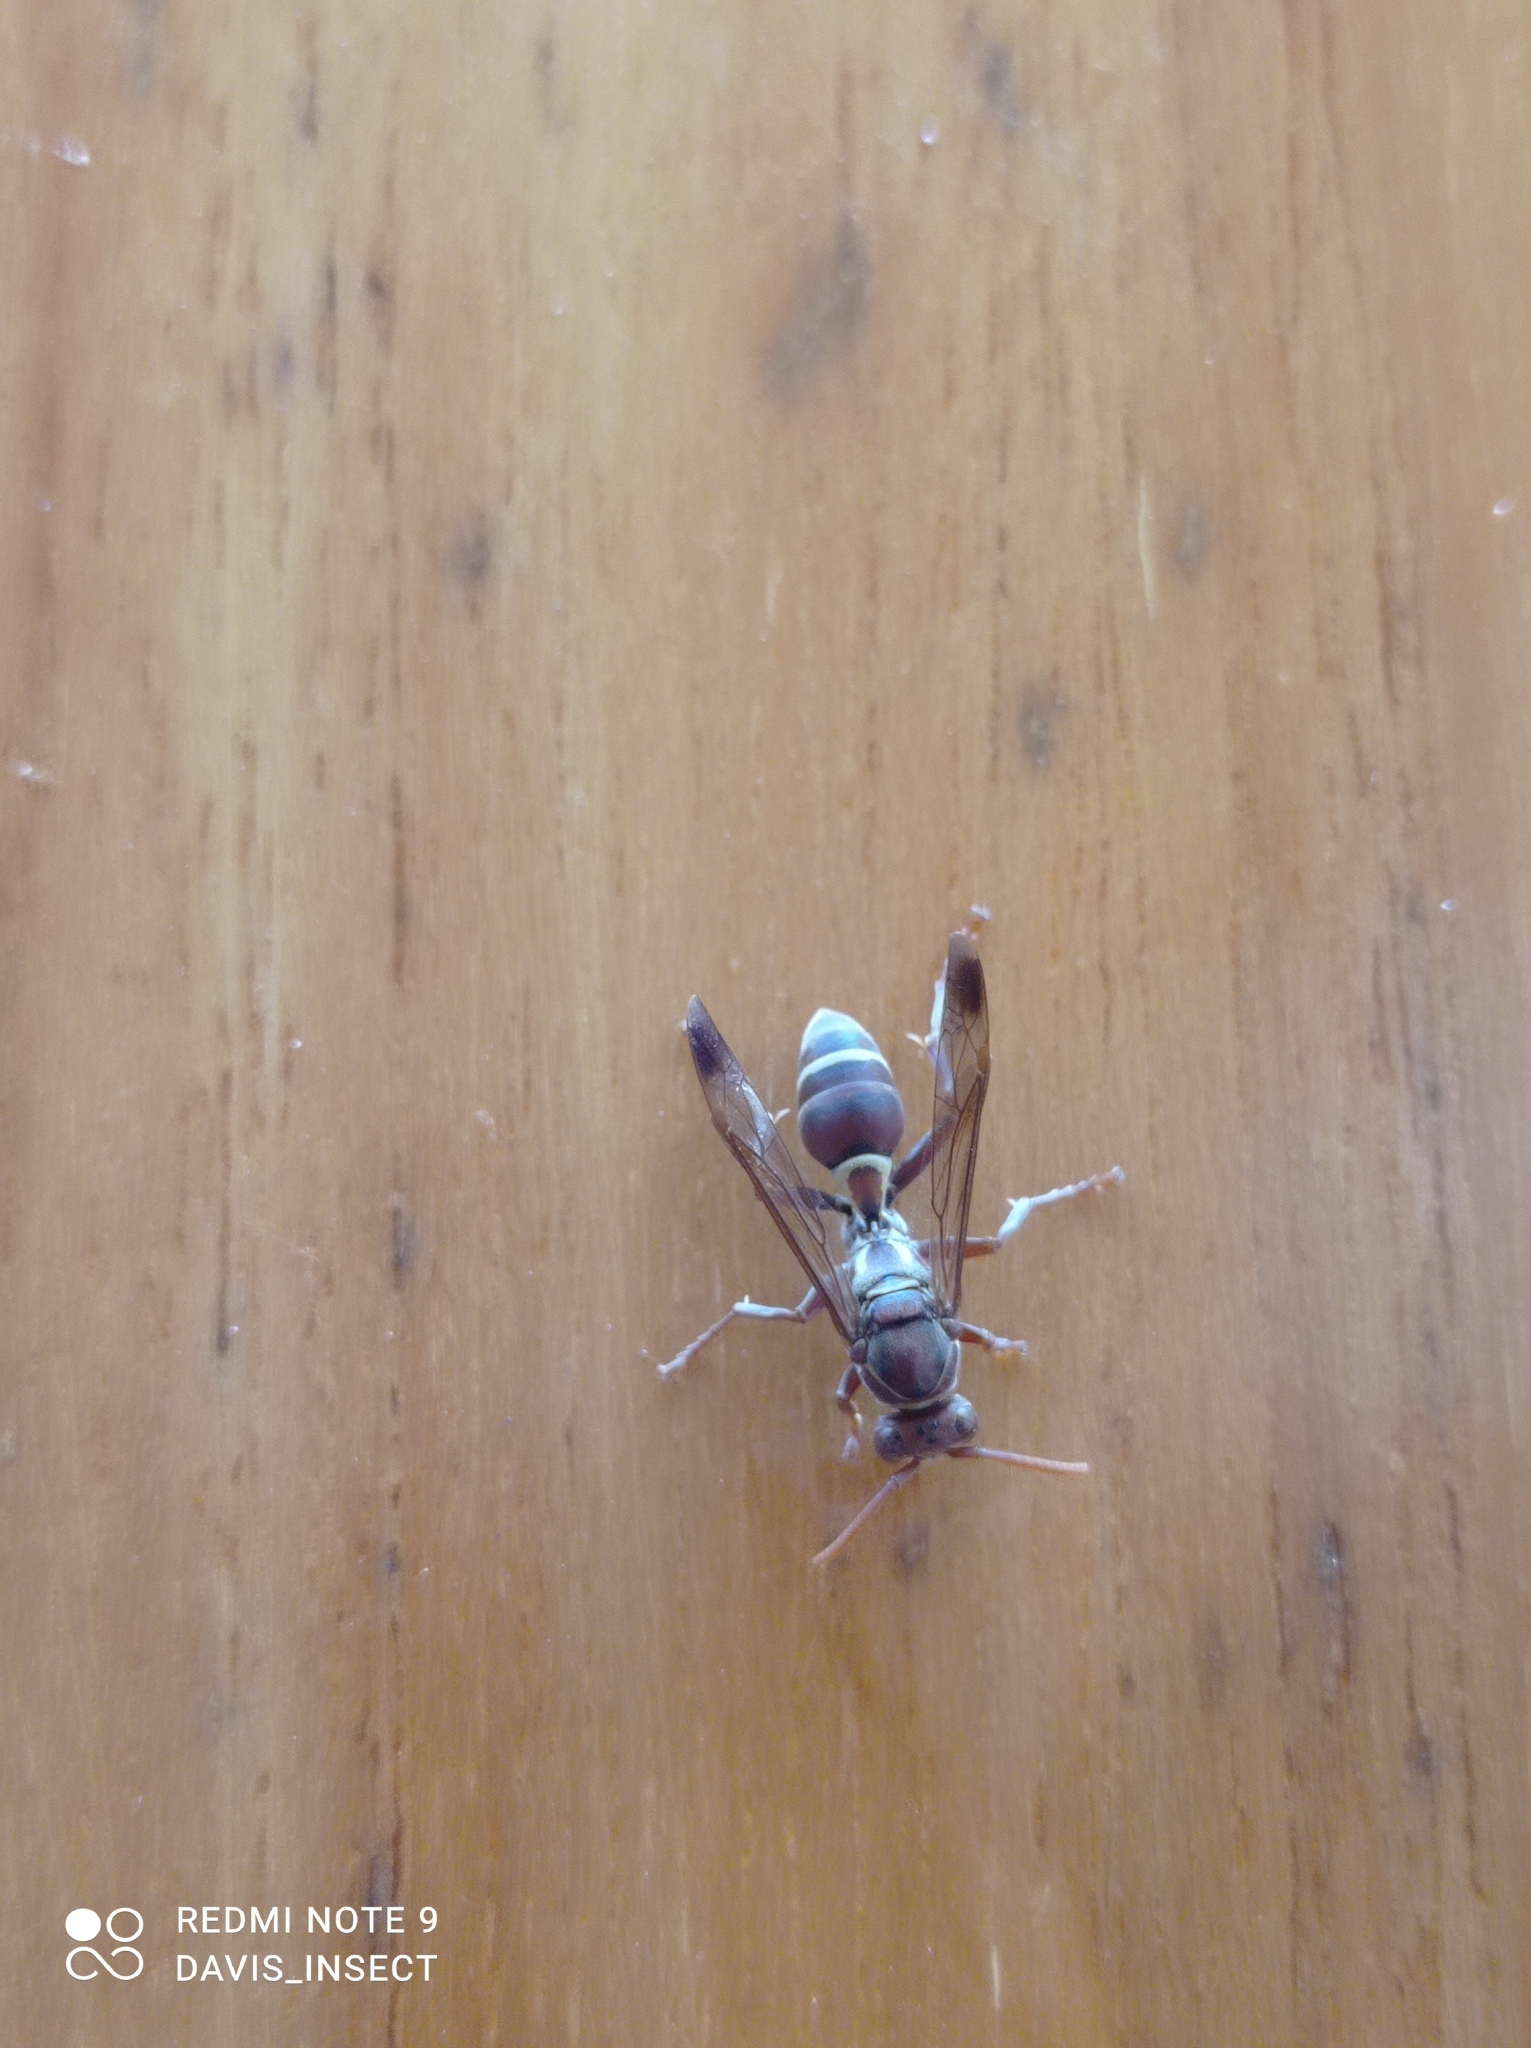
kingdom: Animalia
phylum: Arthropoda
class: Insecta
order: Hymenoptera
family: Eumenidae
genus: Polistes
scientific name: Polistes stigma
